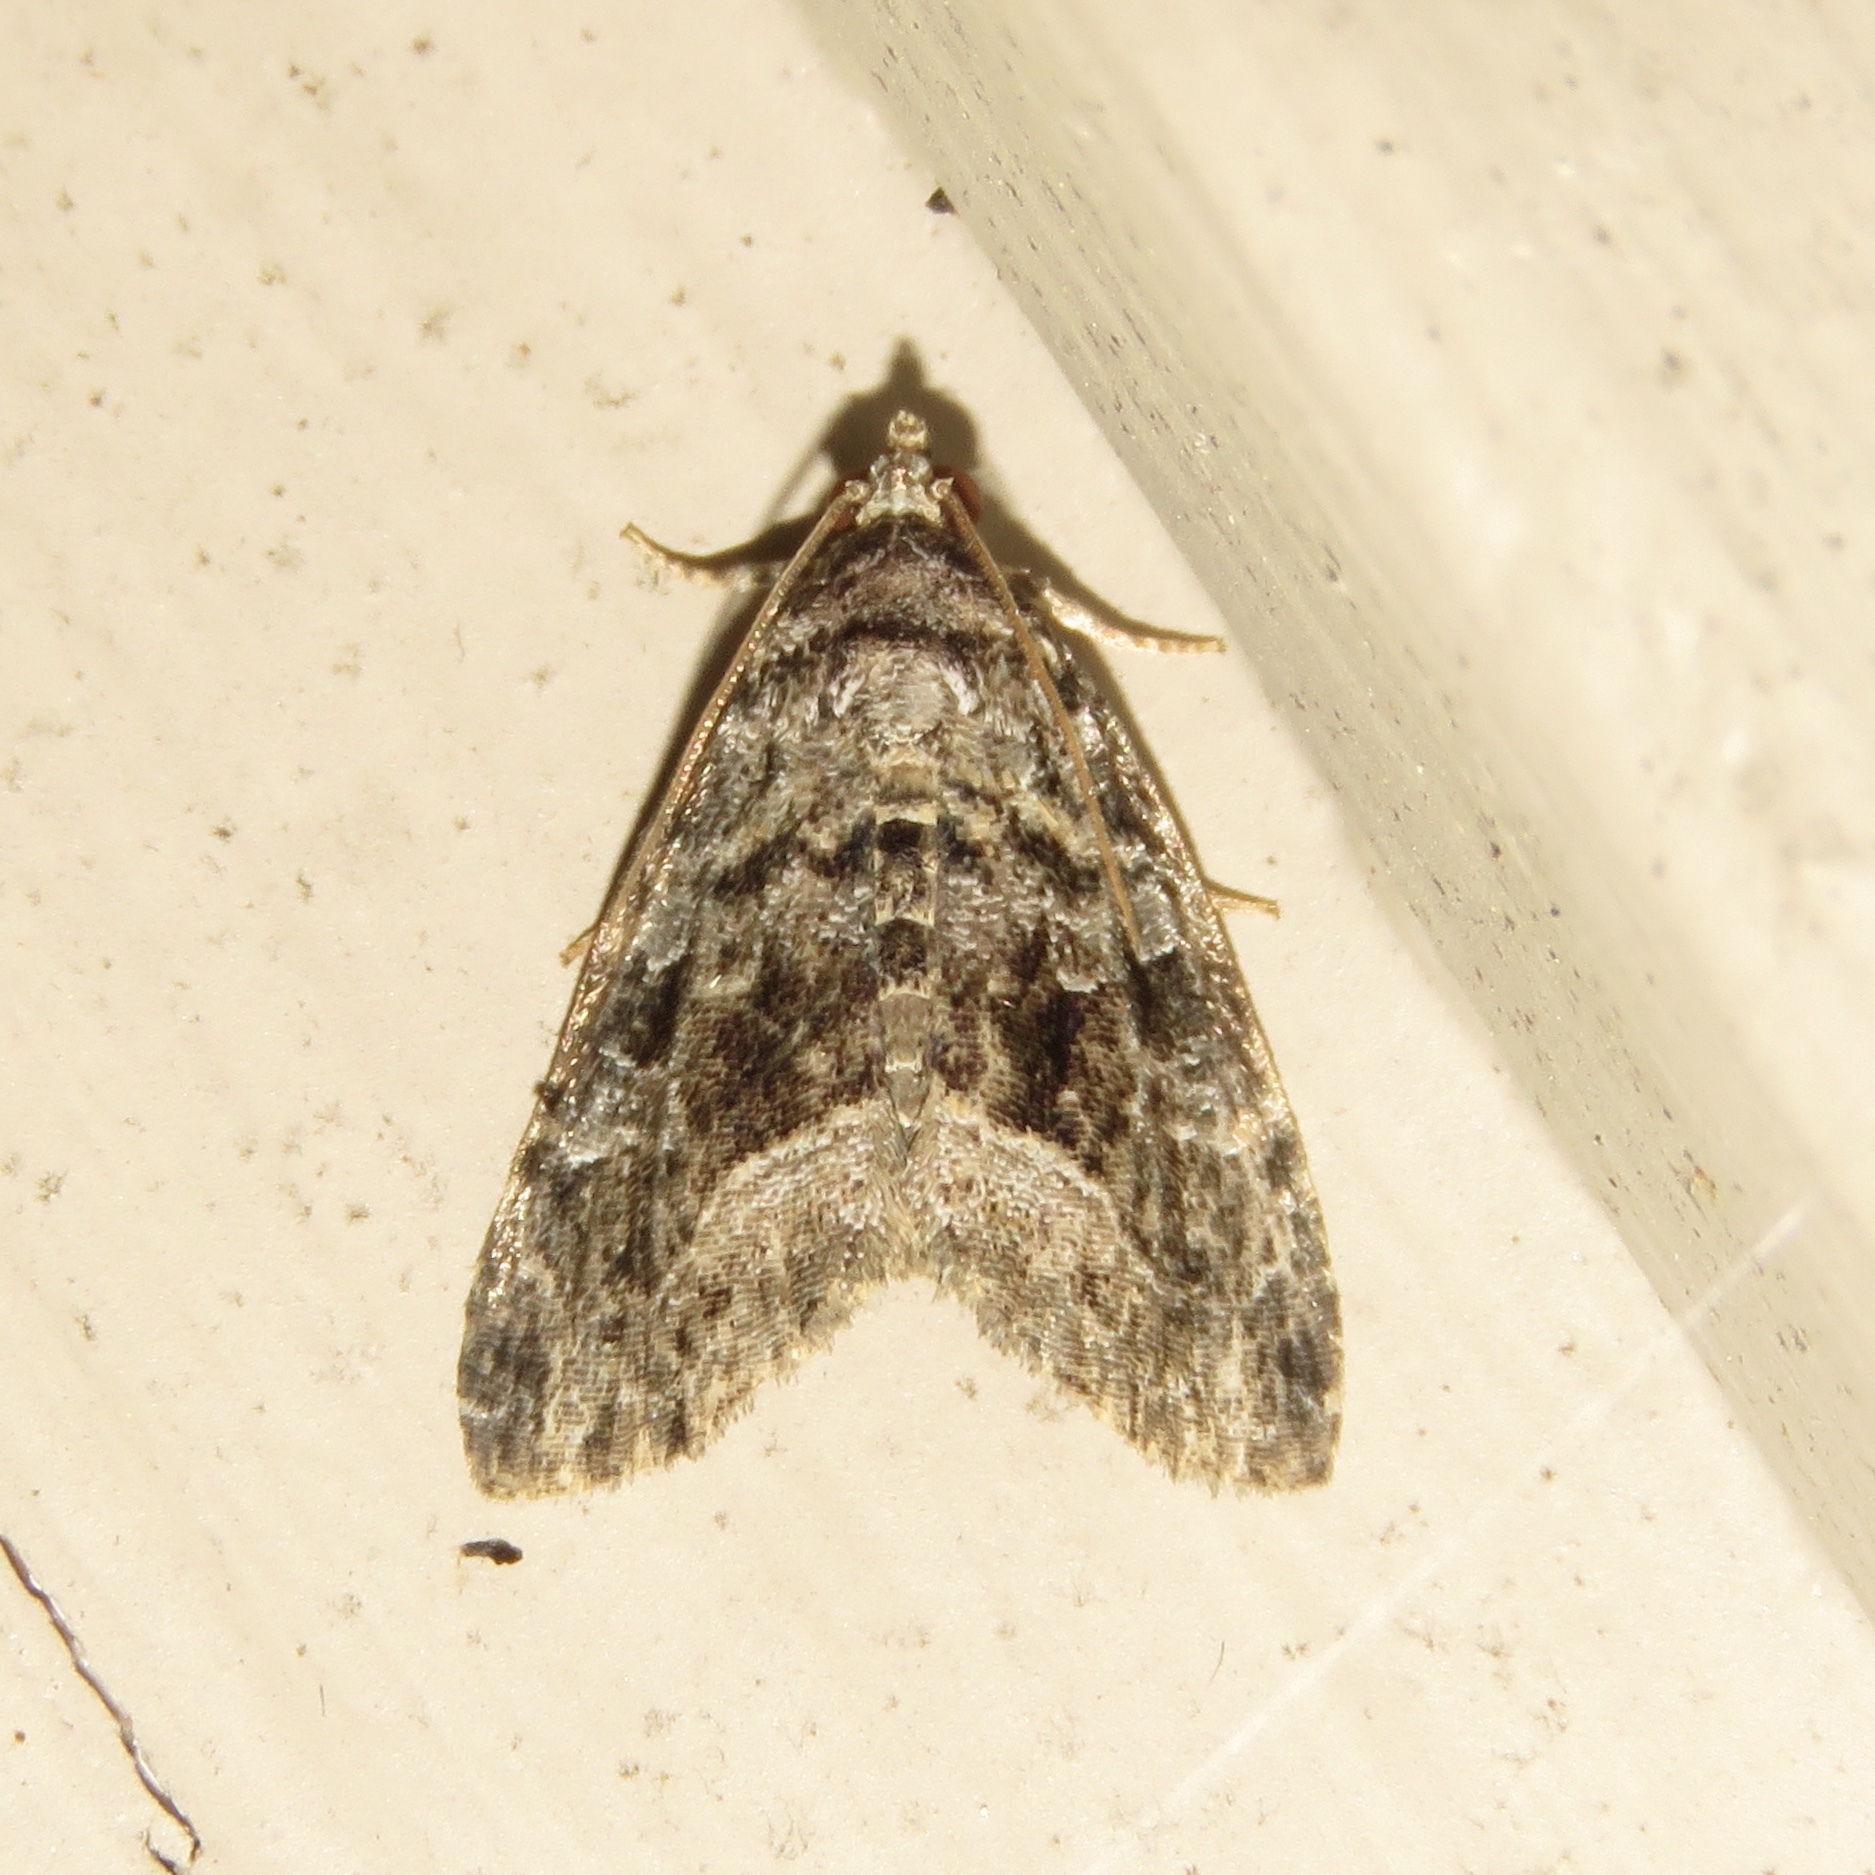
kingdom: Animalia
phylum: Arthropoda
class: Insecta
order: Lepidoptera
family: Noctuidae
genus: Protodeltote
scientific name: Protodeltote muscosula
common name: Large mossy glyph
